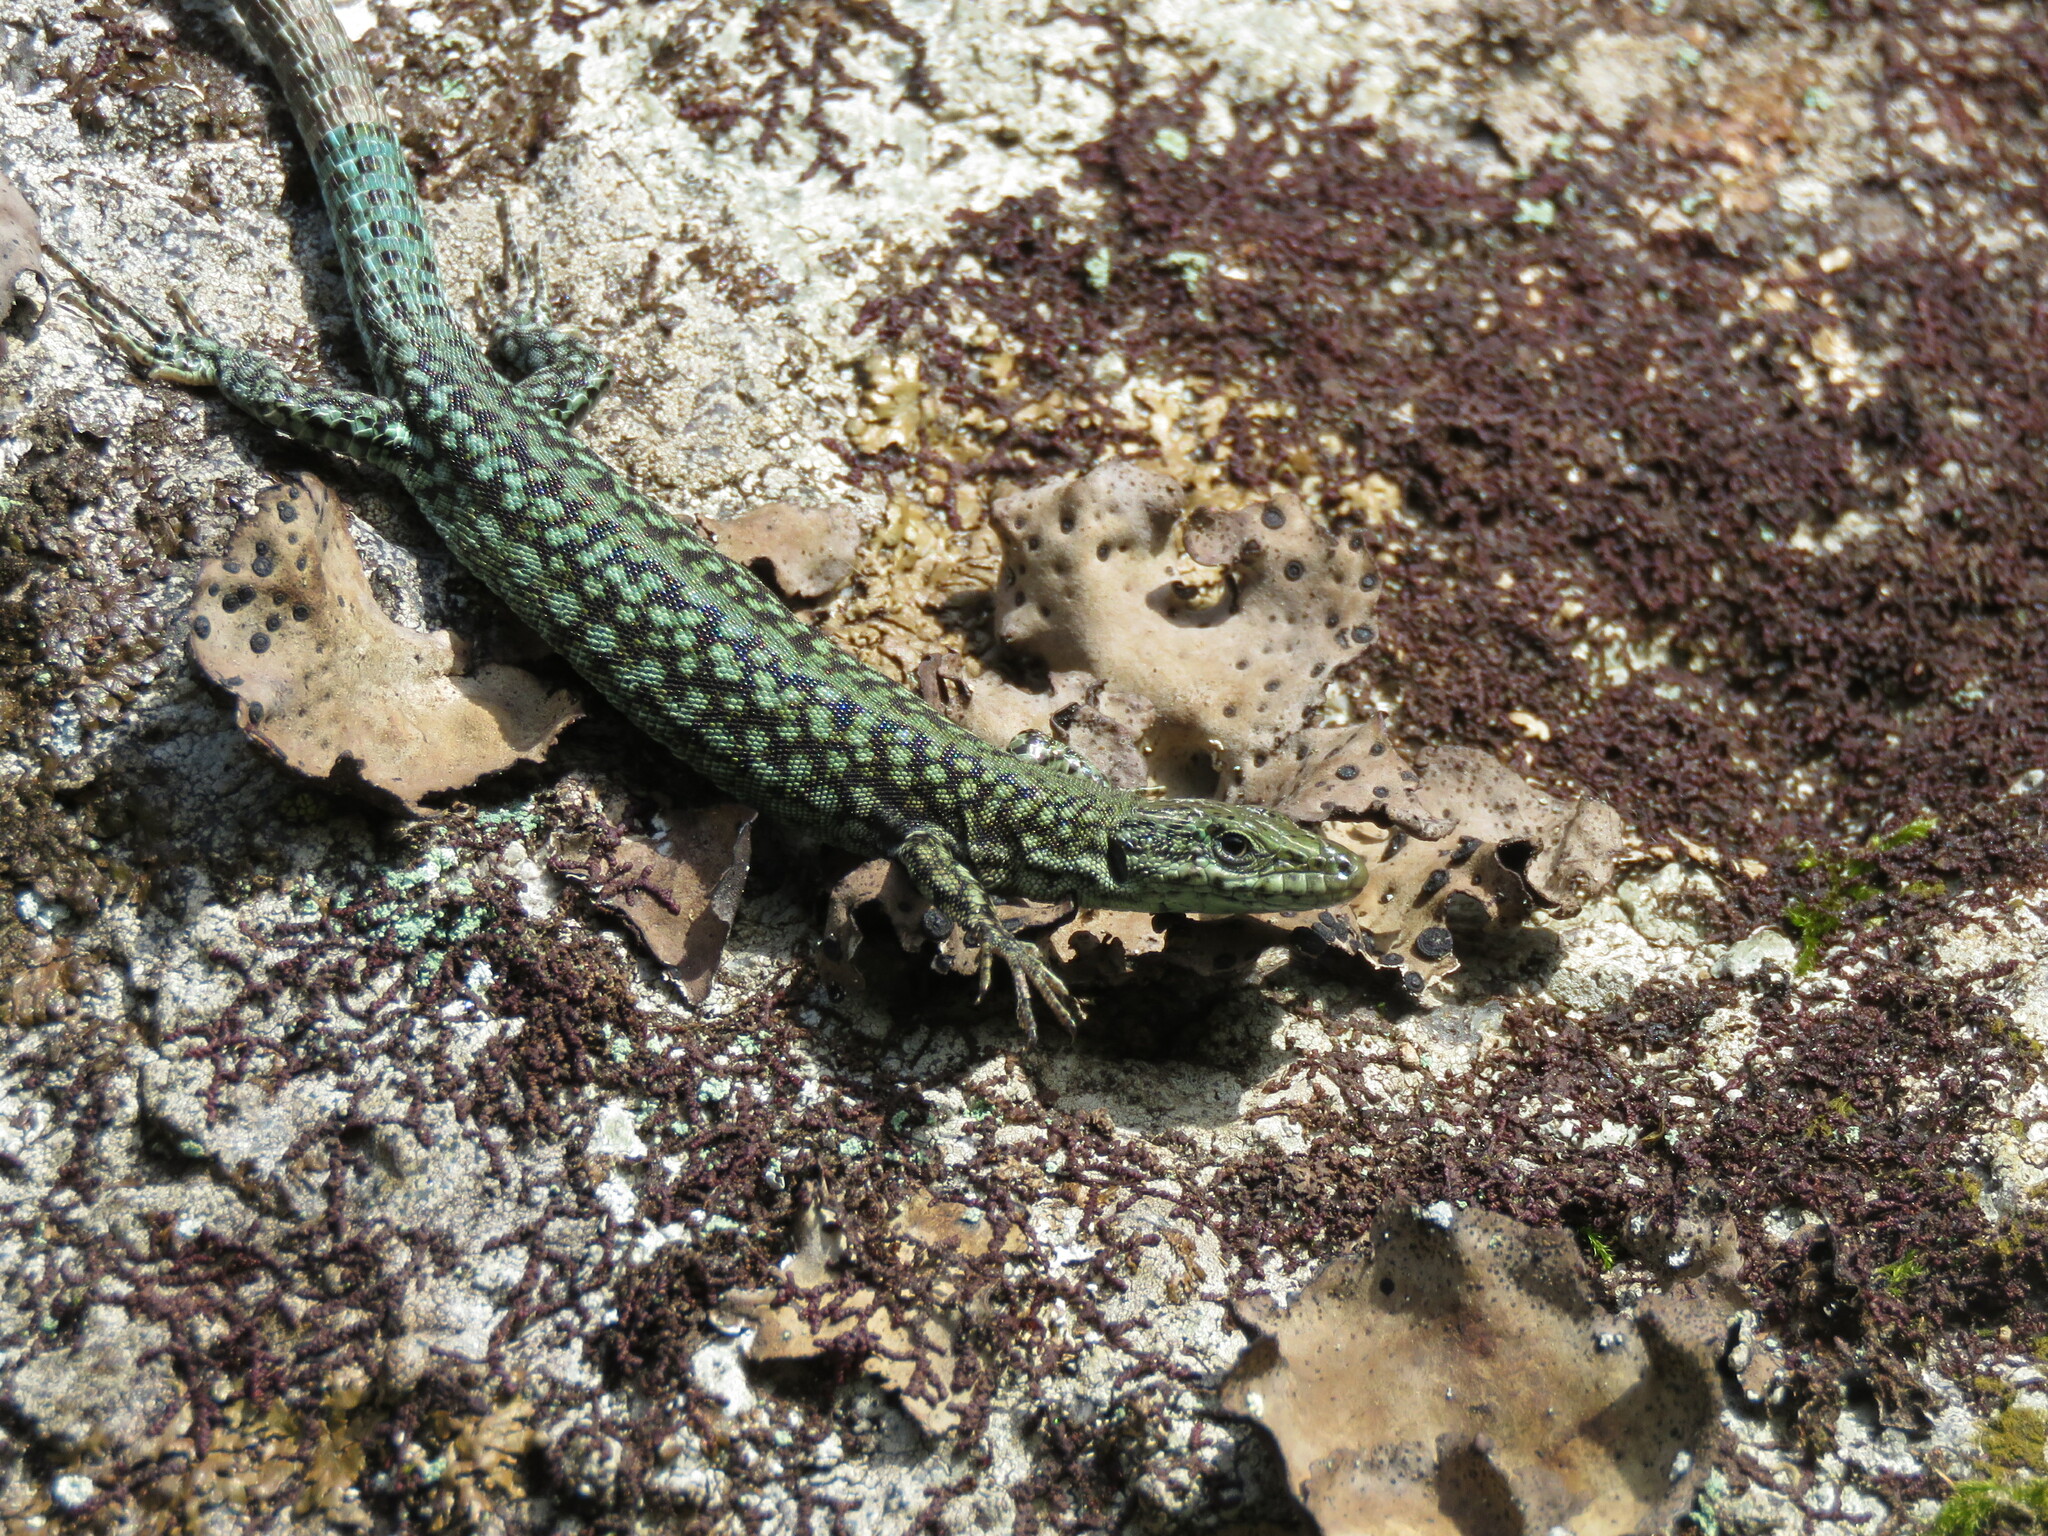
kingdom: Animalia
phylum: Chordata
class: Squamata
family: Lacertidae
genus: Podarcis
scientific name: Podarcis
